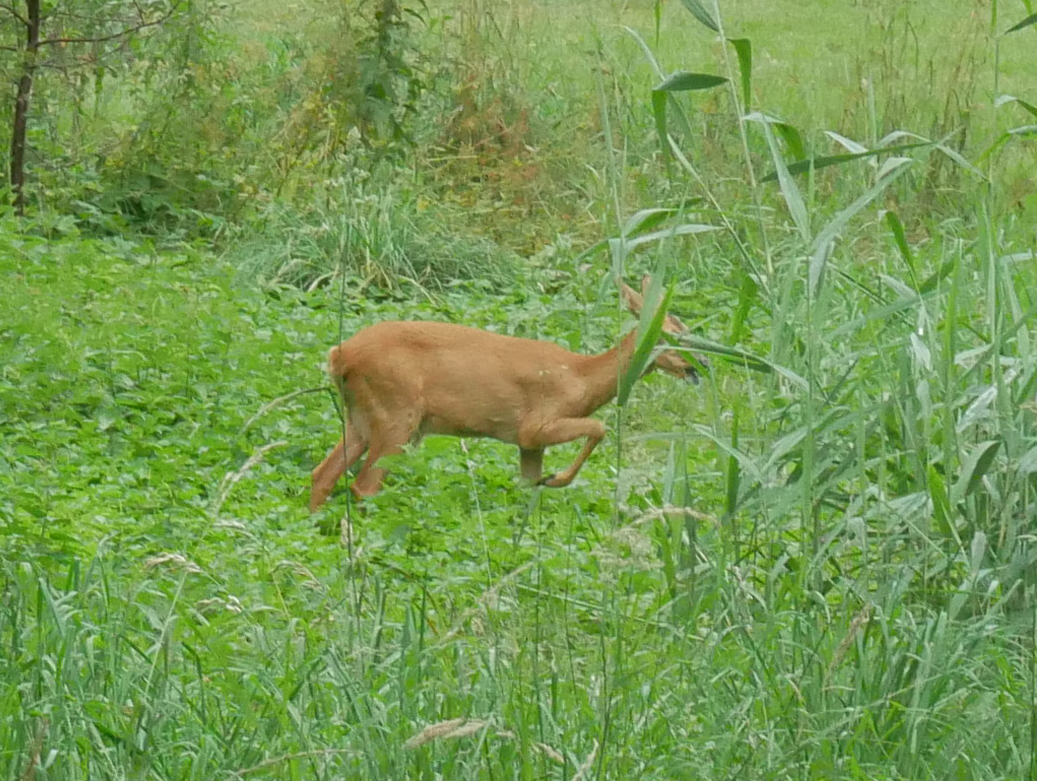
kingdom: Animalia
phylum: Chordata
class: Mammalia
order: Artiodactyla
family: Cervidae
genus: Capreolus
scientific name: Capreolus capreolus
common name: Western roe deer
